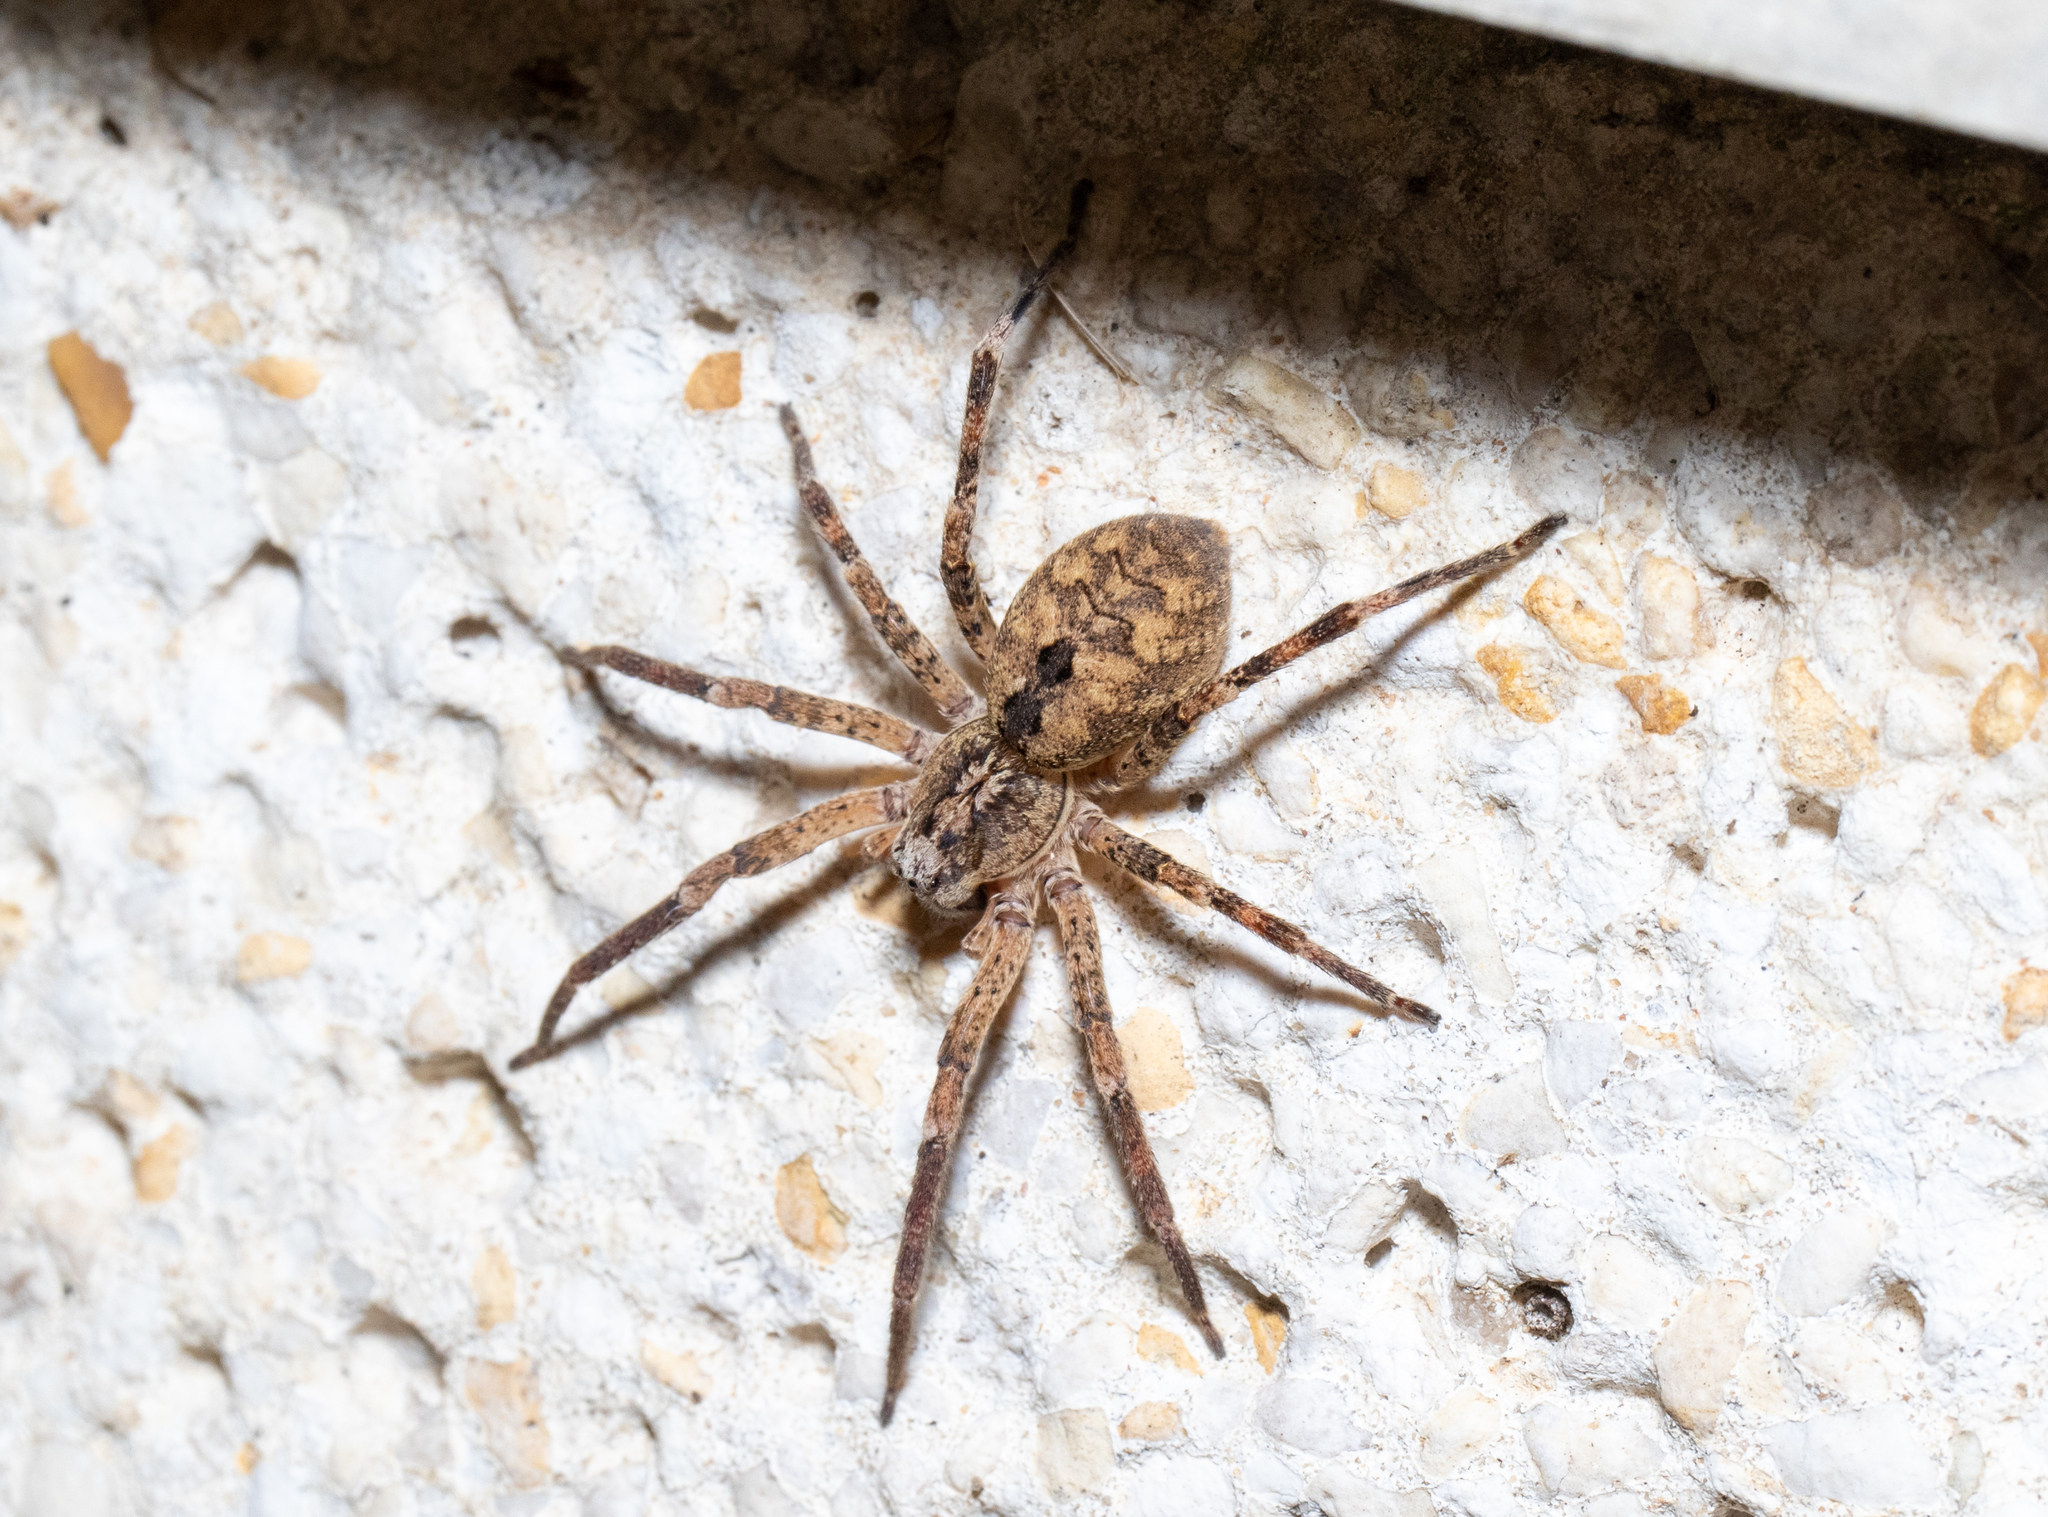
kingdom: Animalia
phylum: Arthropoda
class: Arachnida
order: Araneae
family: Zoropsidae
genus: Zoropsis
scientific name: Zoropsis spinimana
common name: Zoropsid spider
